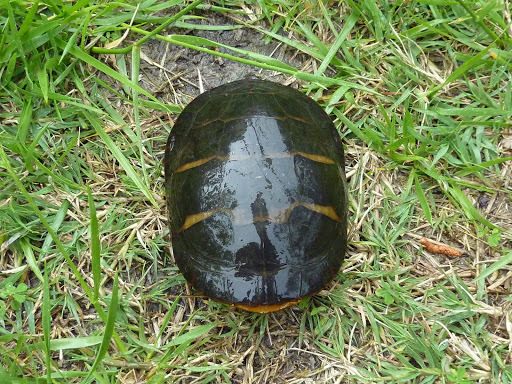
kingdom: Animalia
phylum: Chordata
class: Testudines
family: Emydidae
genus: Chrysemys
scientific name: Chrysemys picta
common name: Painted turtle
